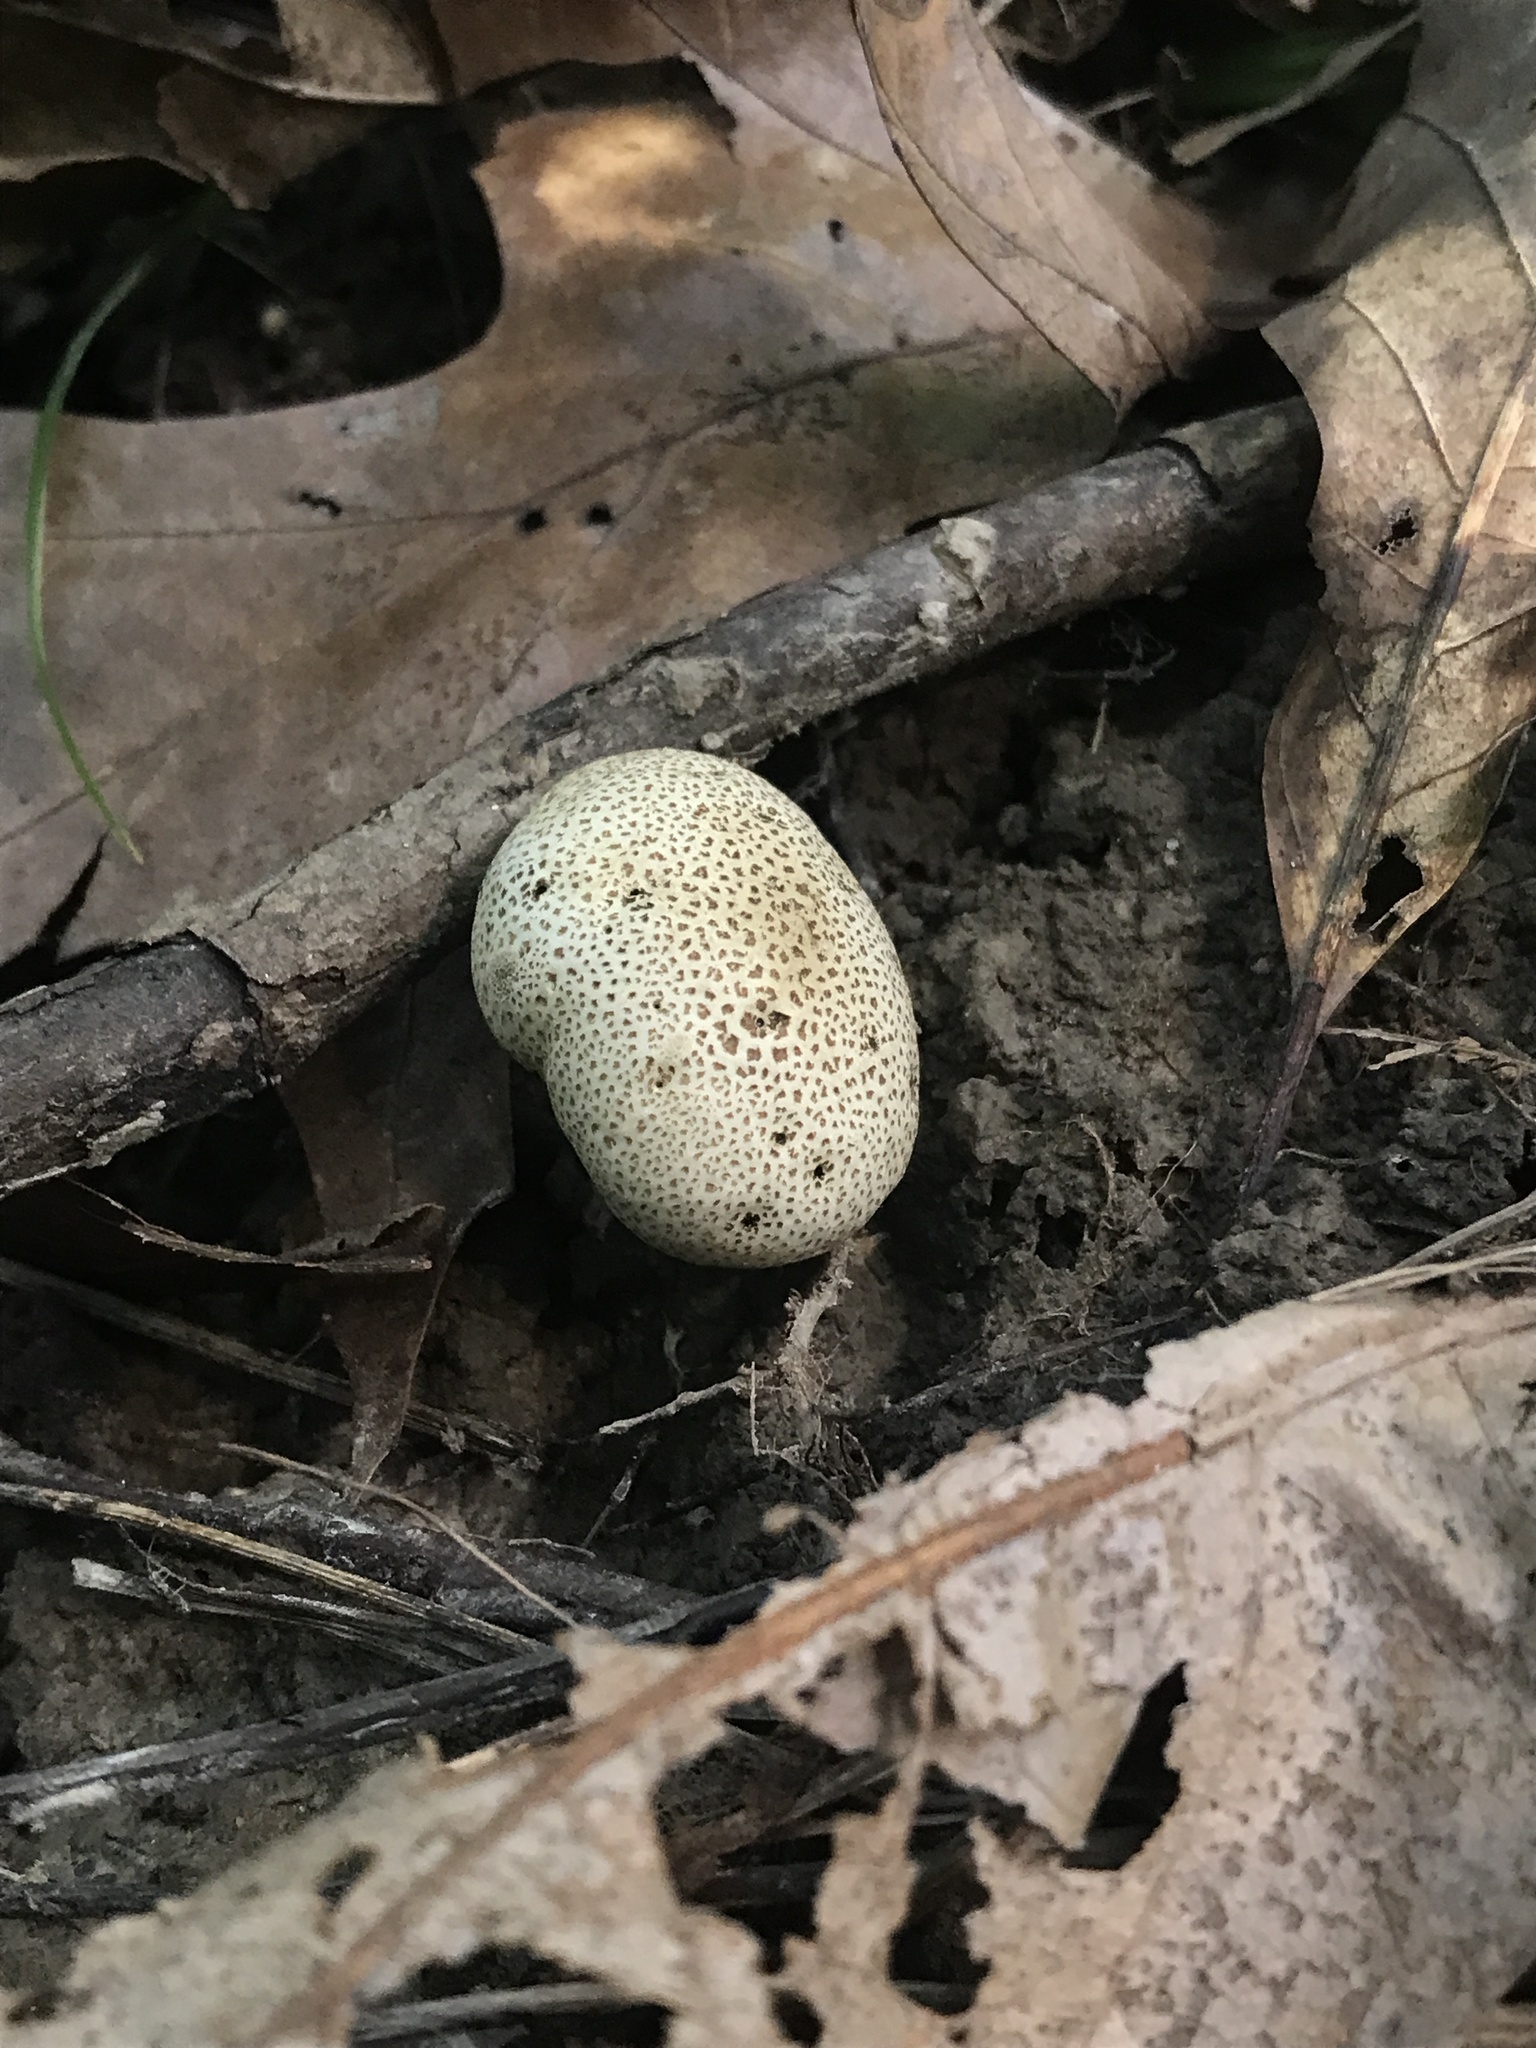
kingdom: Fungi
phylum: Basidiomycota
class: Agaricomycetes
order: Boletales
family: Sclerodermataceae
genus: Scleroderma
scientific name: Scleroderma areolatum
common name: Leopard earthball
